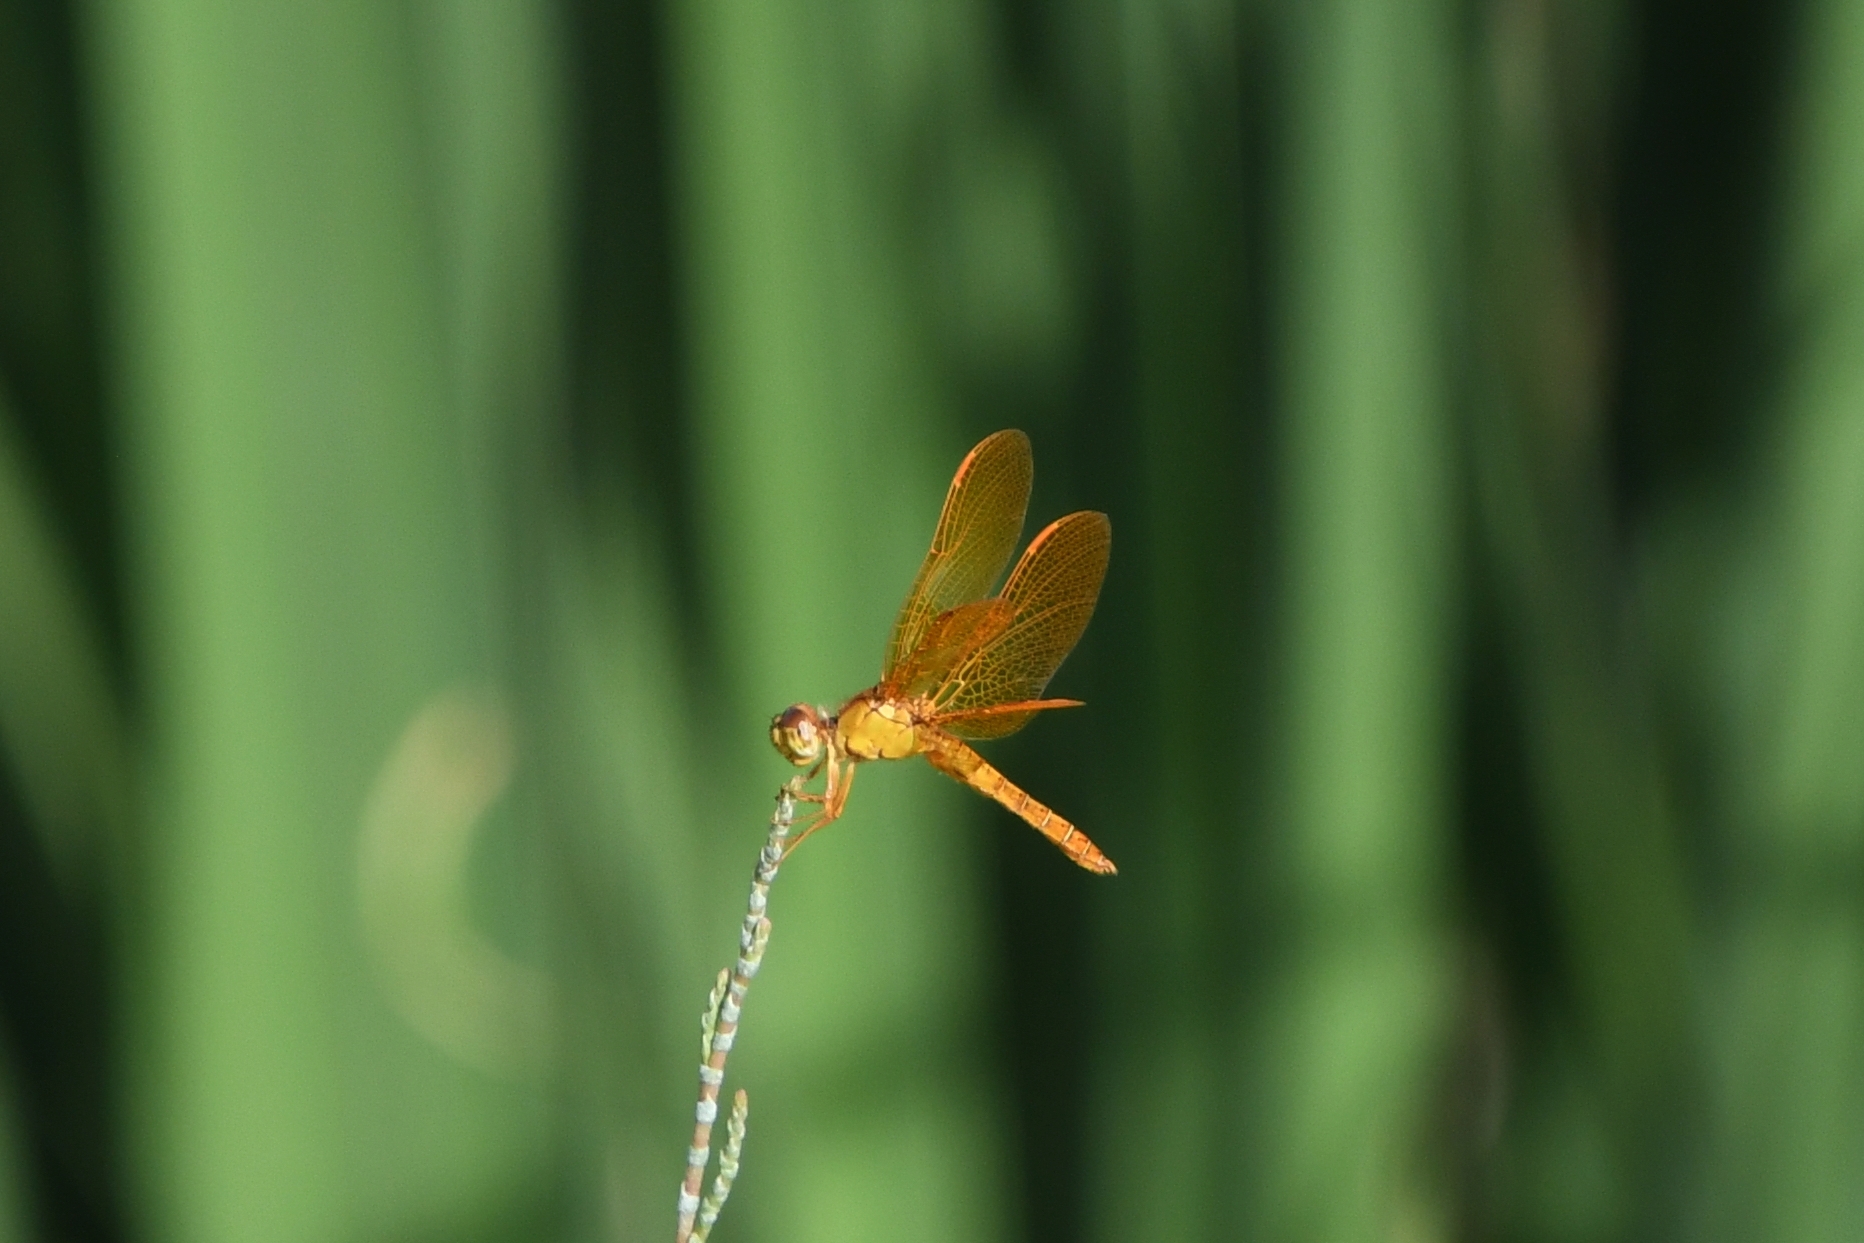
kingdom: Animalia
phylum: Arthropoda
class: Insecta
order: Odonata
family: Libellulidae
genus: Perithemis
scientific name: Perithemis intensa
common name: Mexican amberwing
